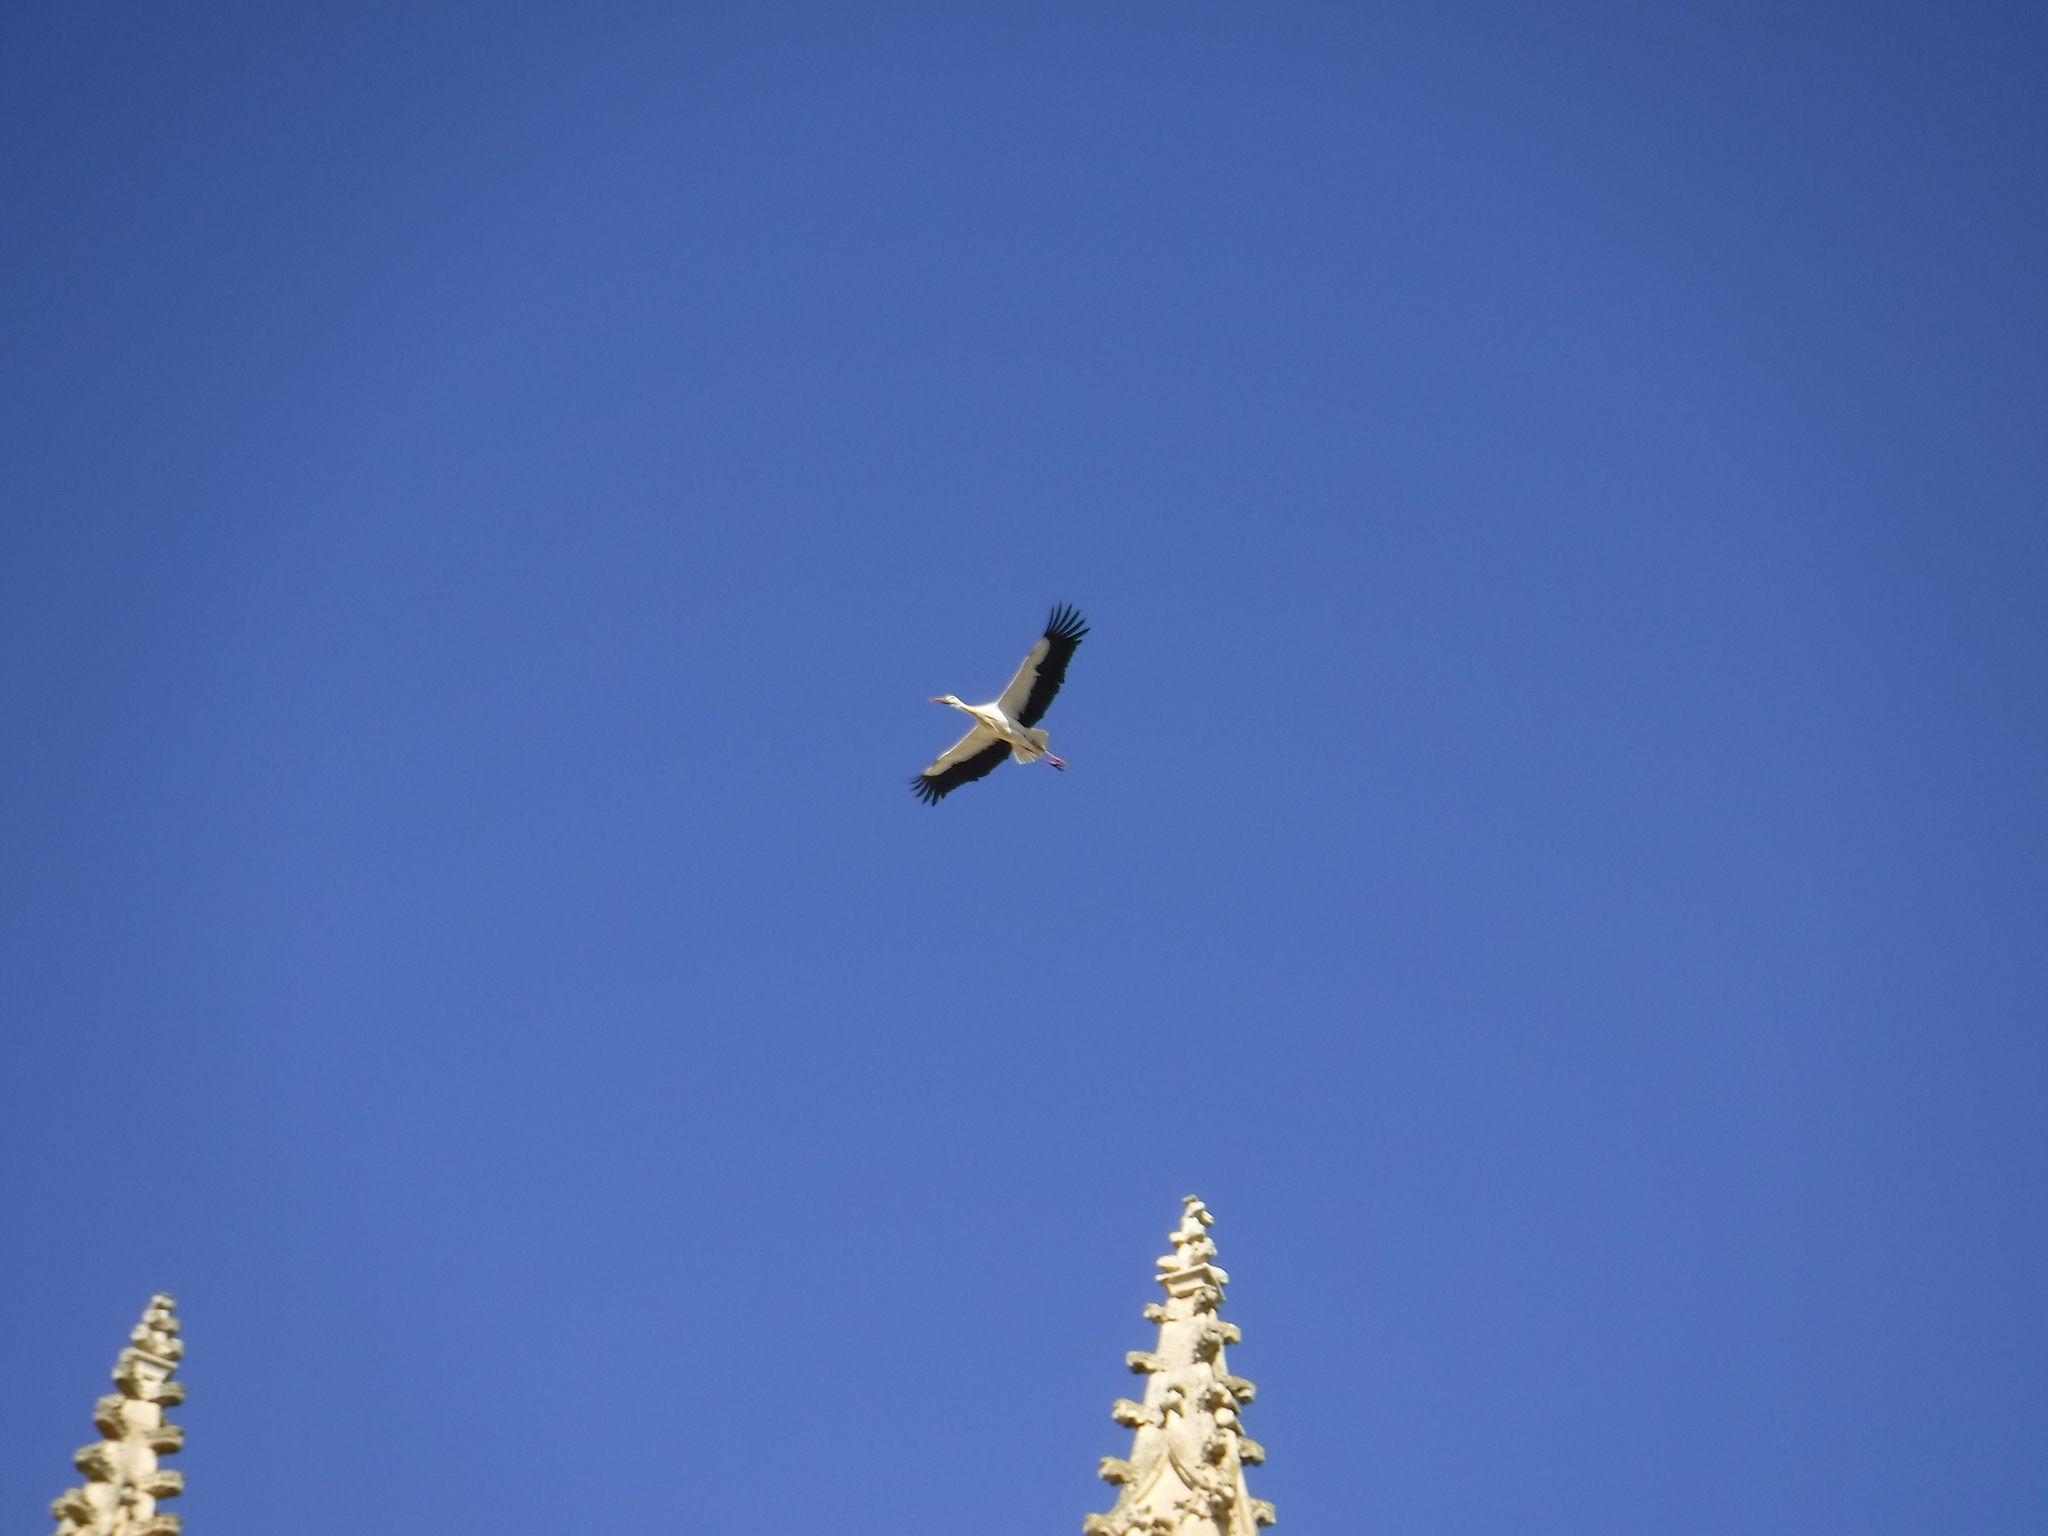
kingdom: Animalia
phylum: Chordata
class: Aves
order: Ciconiiformes
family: Ciconiidae
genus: Ciconia
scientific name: Ciconia ciconia
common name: White stork
